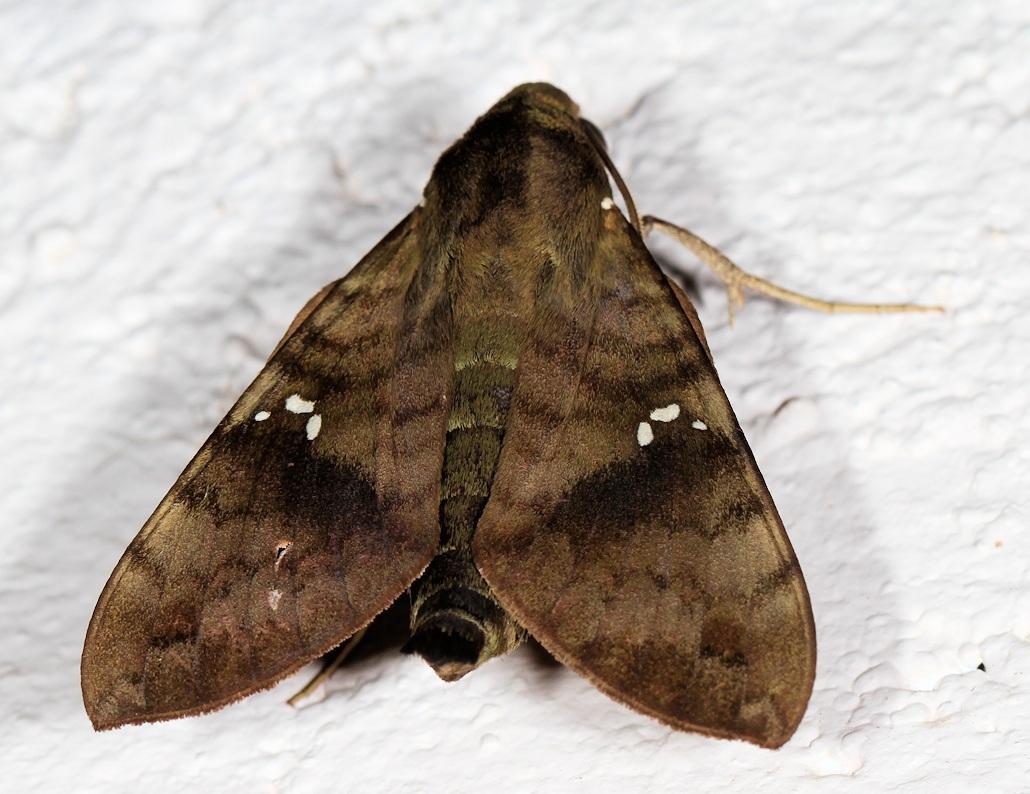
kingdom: Animalia
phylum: Arthropoda
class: Insecta
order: Lepidoptera
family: Sphingidae
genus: Nephele
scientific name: Nephele peneus
